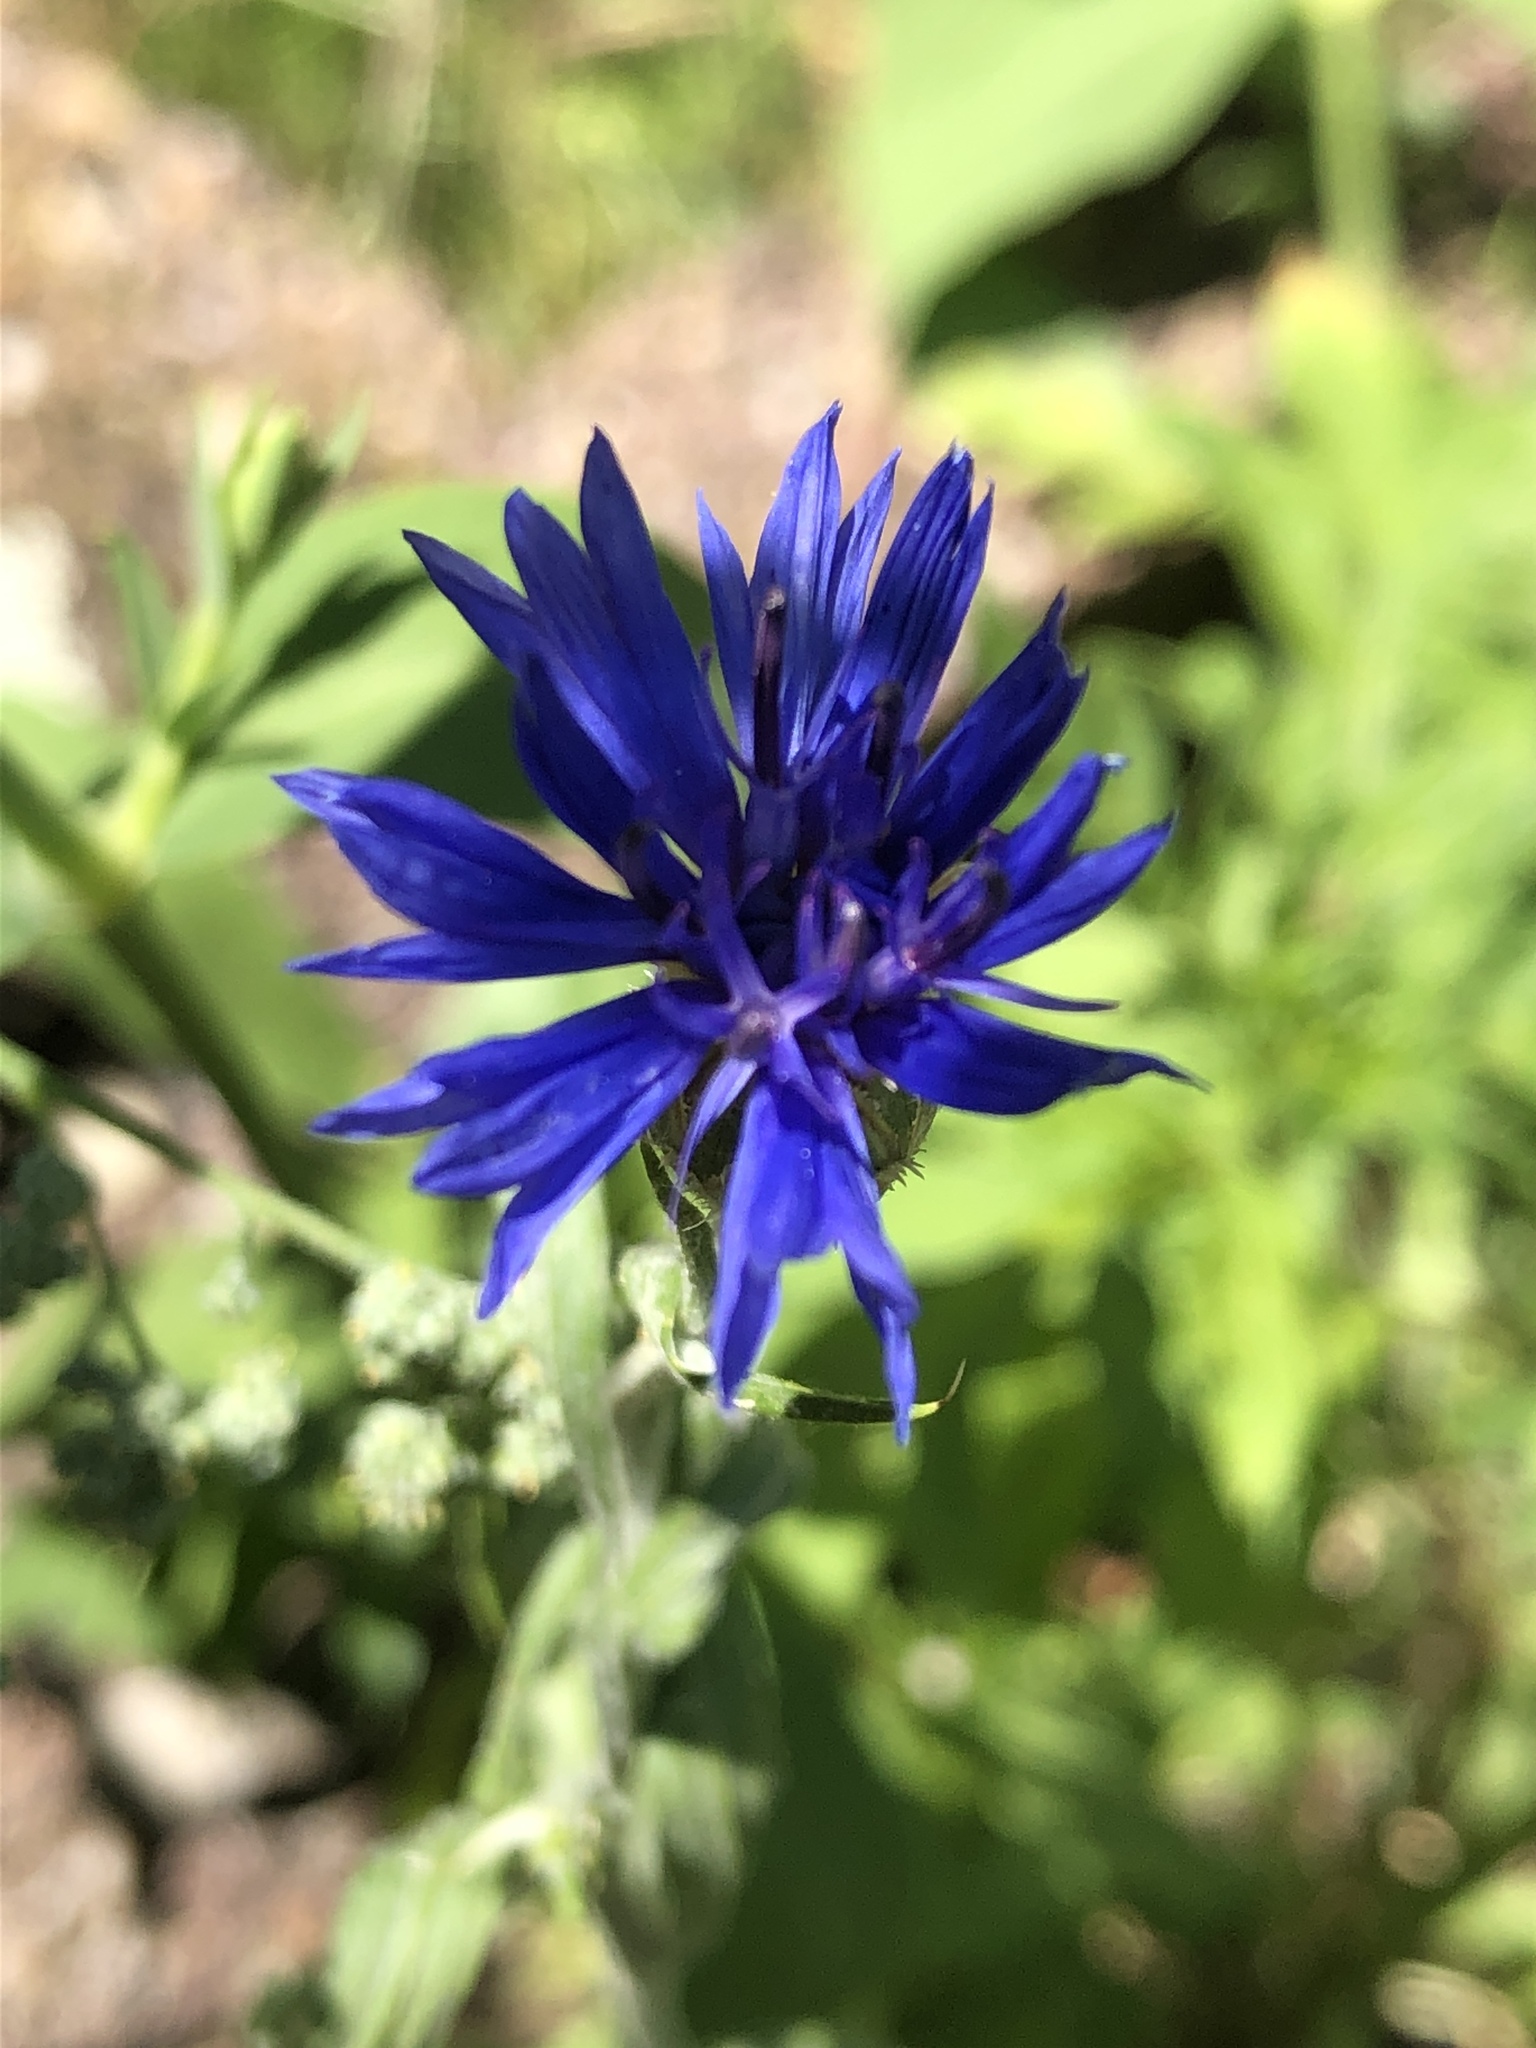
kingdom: Plantae
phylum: Tracheophyta
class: Magnoliopsida
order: Asterales
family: Asteraceae
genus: Centaurea
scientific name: Centaurea cyanus
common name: Cornflower
